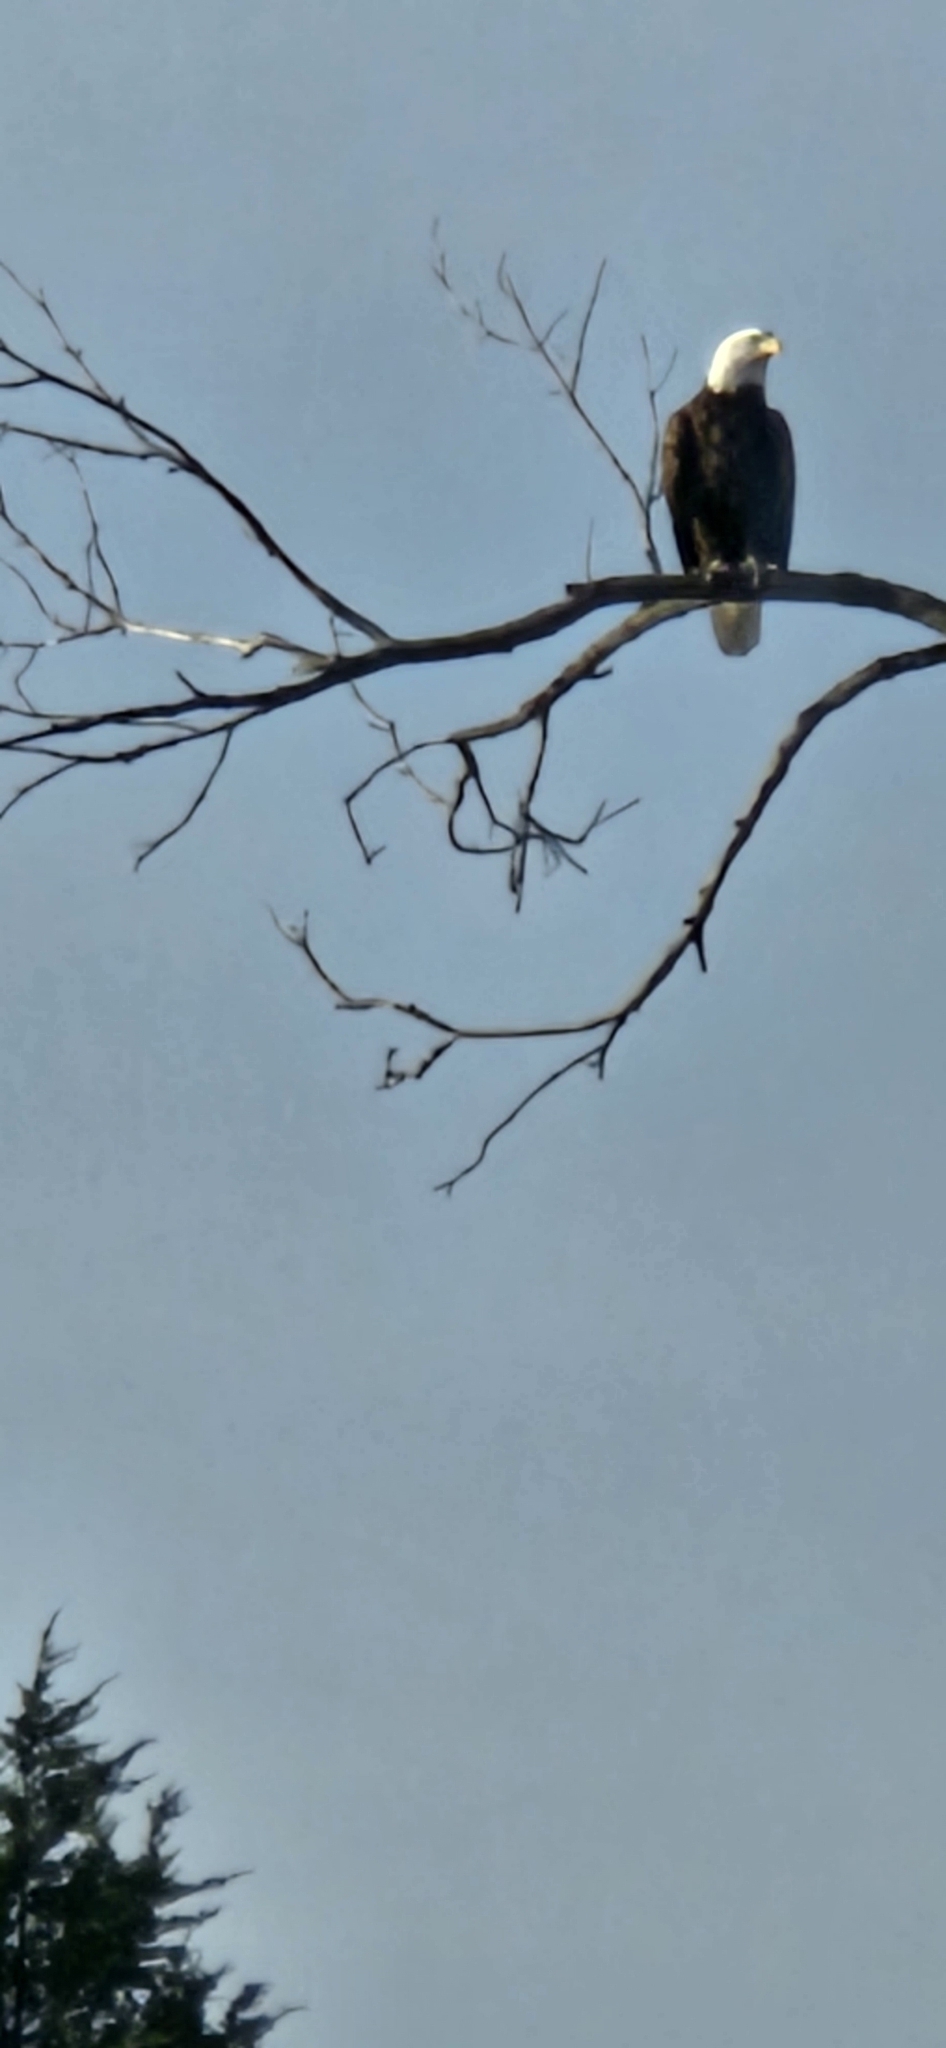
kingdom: Animalia
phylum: Chordata
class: Aves
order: Accipitriformes
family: Accipitridae
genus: Haliaeetus
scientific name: Haliaeetus leucocephalus
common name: Bald eagle
